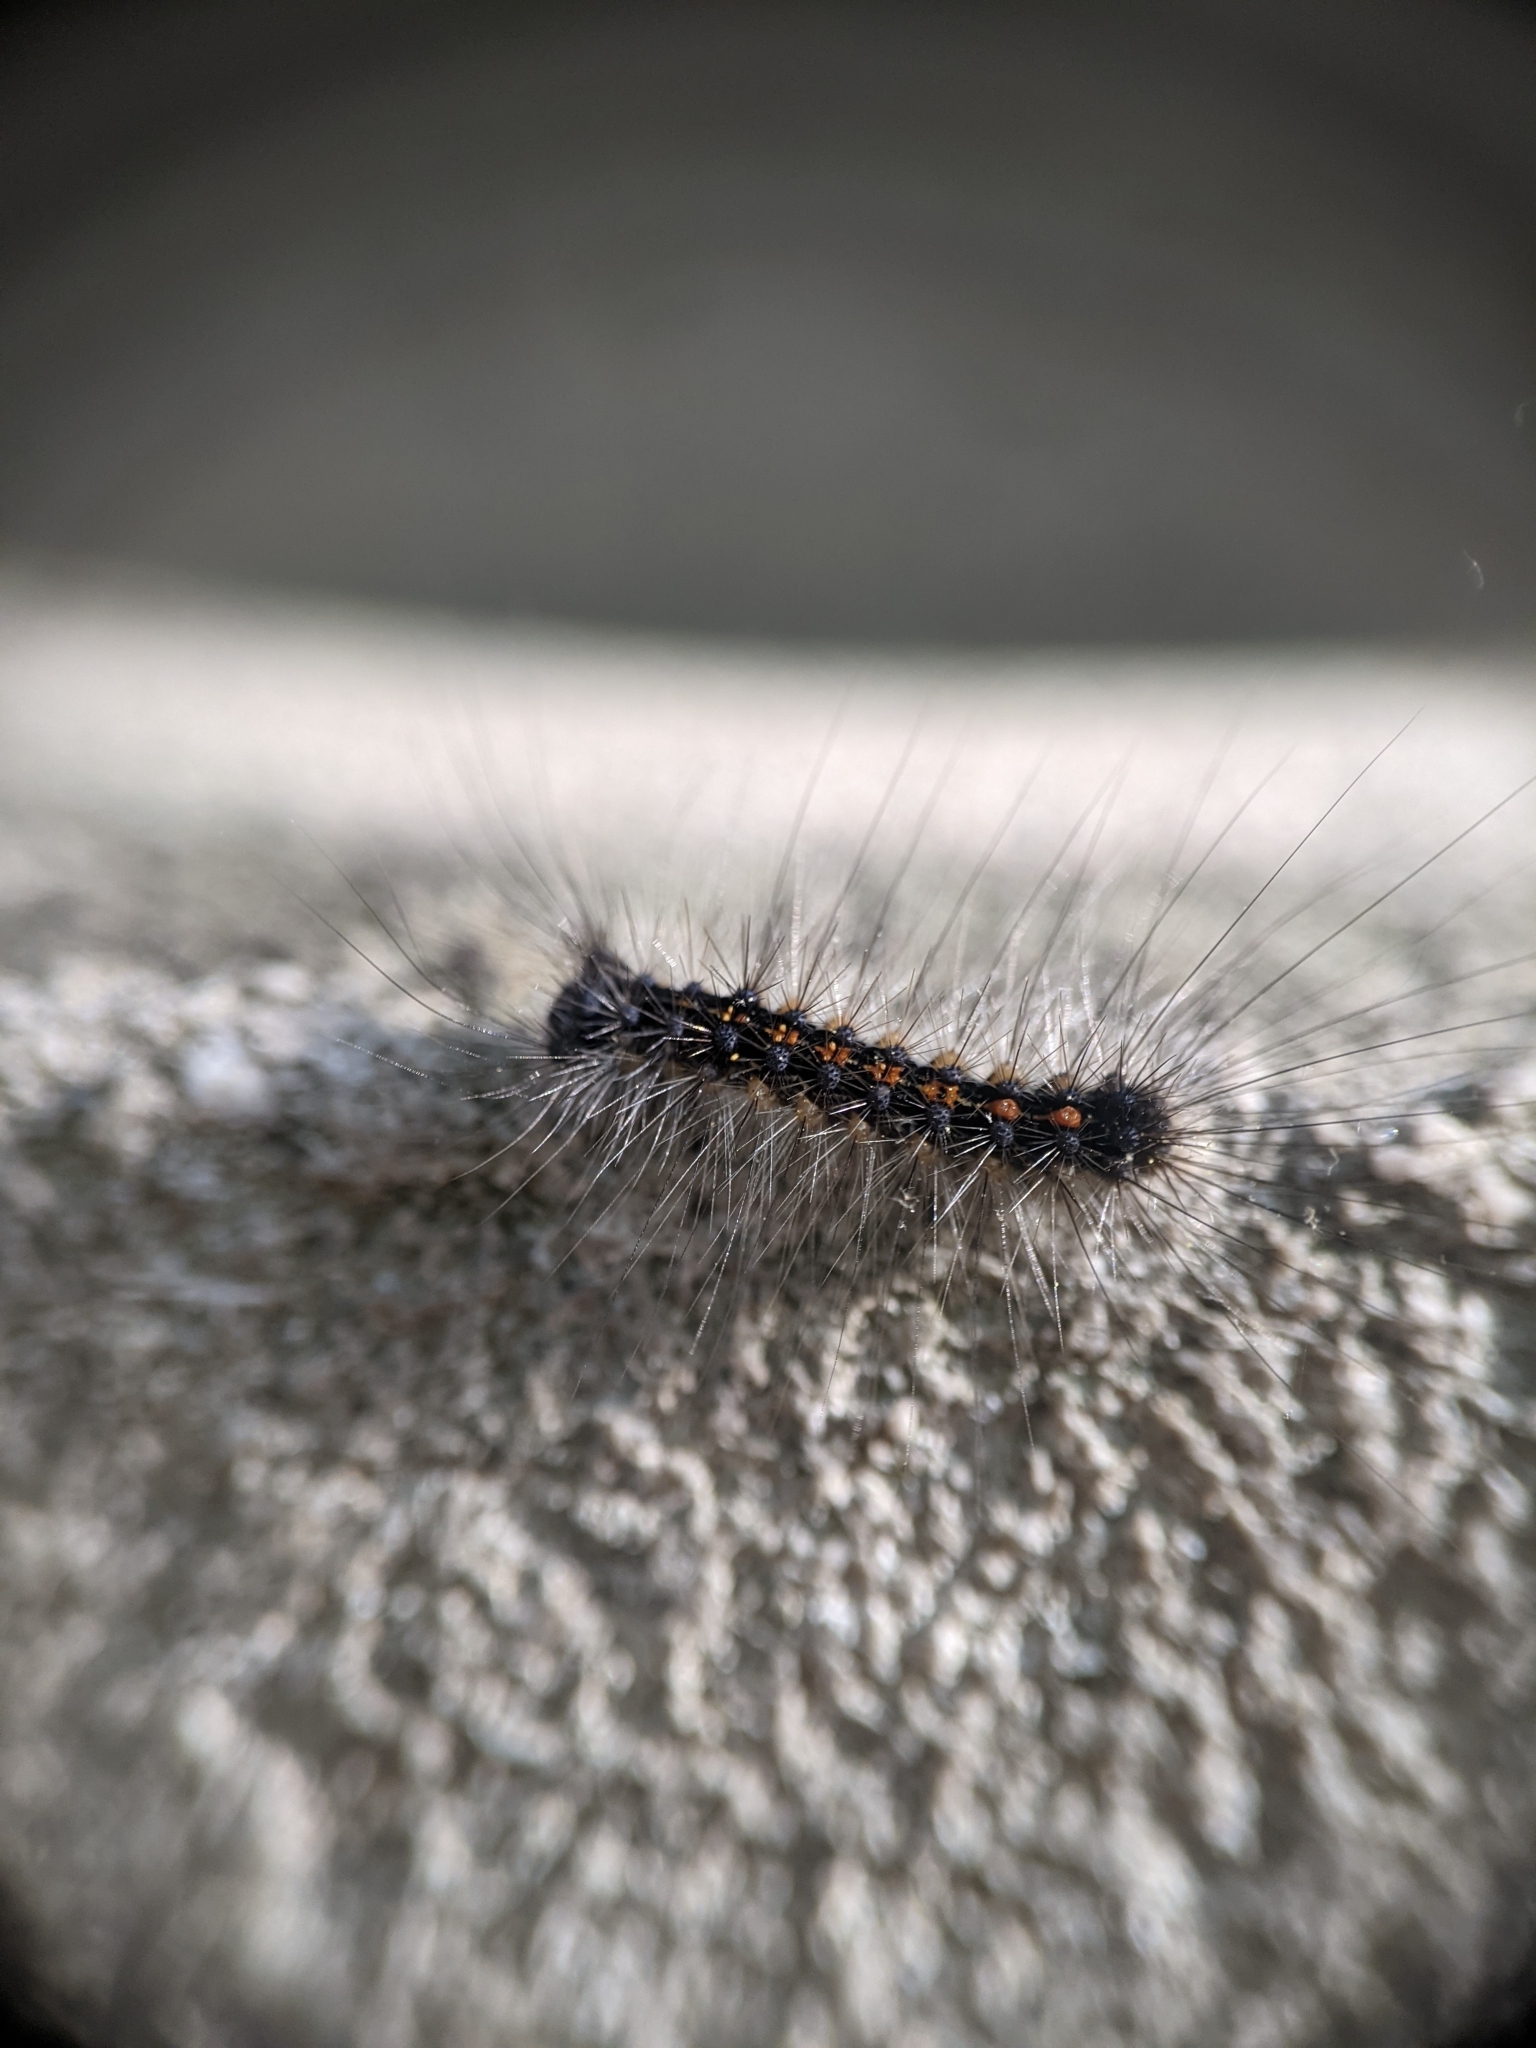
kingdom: Animalia
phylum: Arthropoda
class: Insecta
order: Lepidoptera
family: Erebidae
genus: Lymantria
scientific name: Lymantria dispar
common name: Gypsy moth
